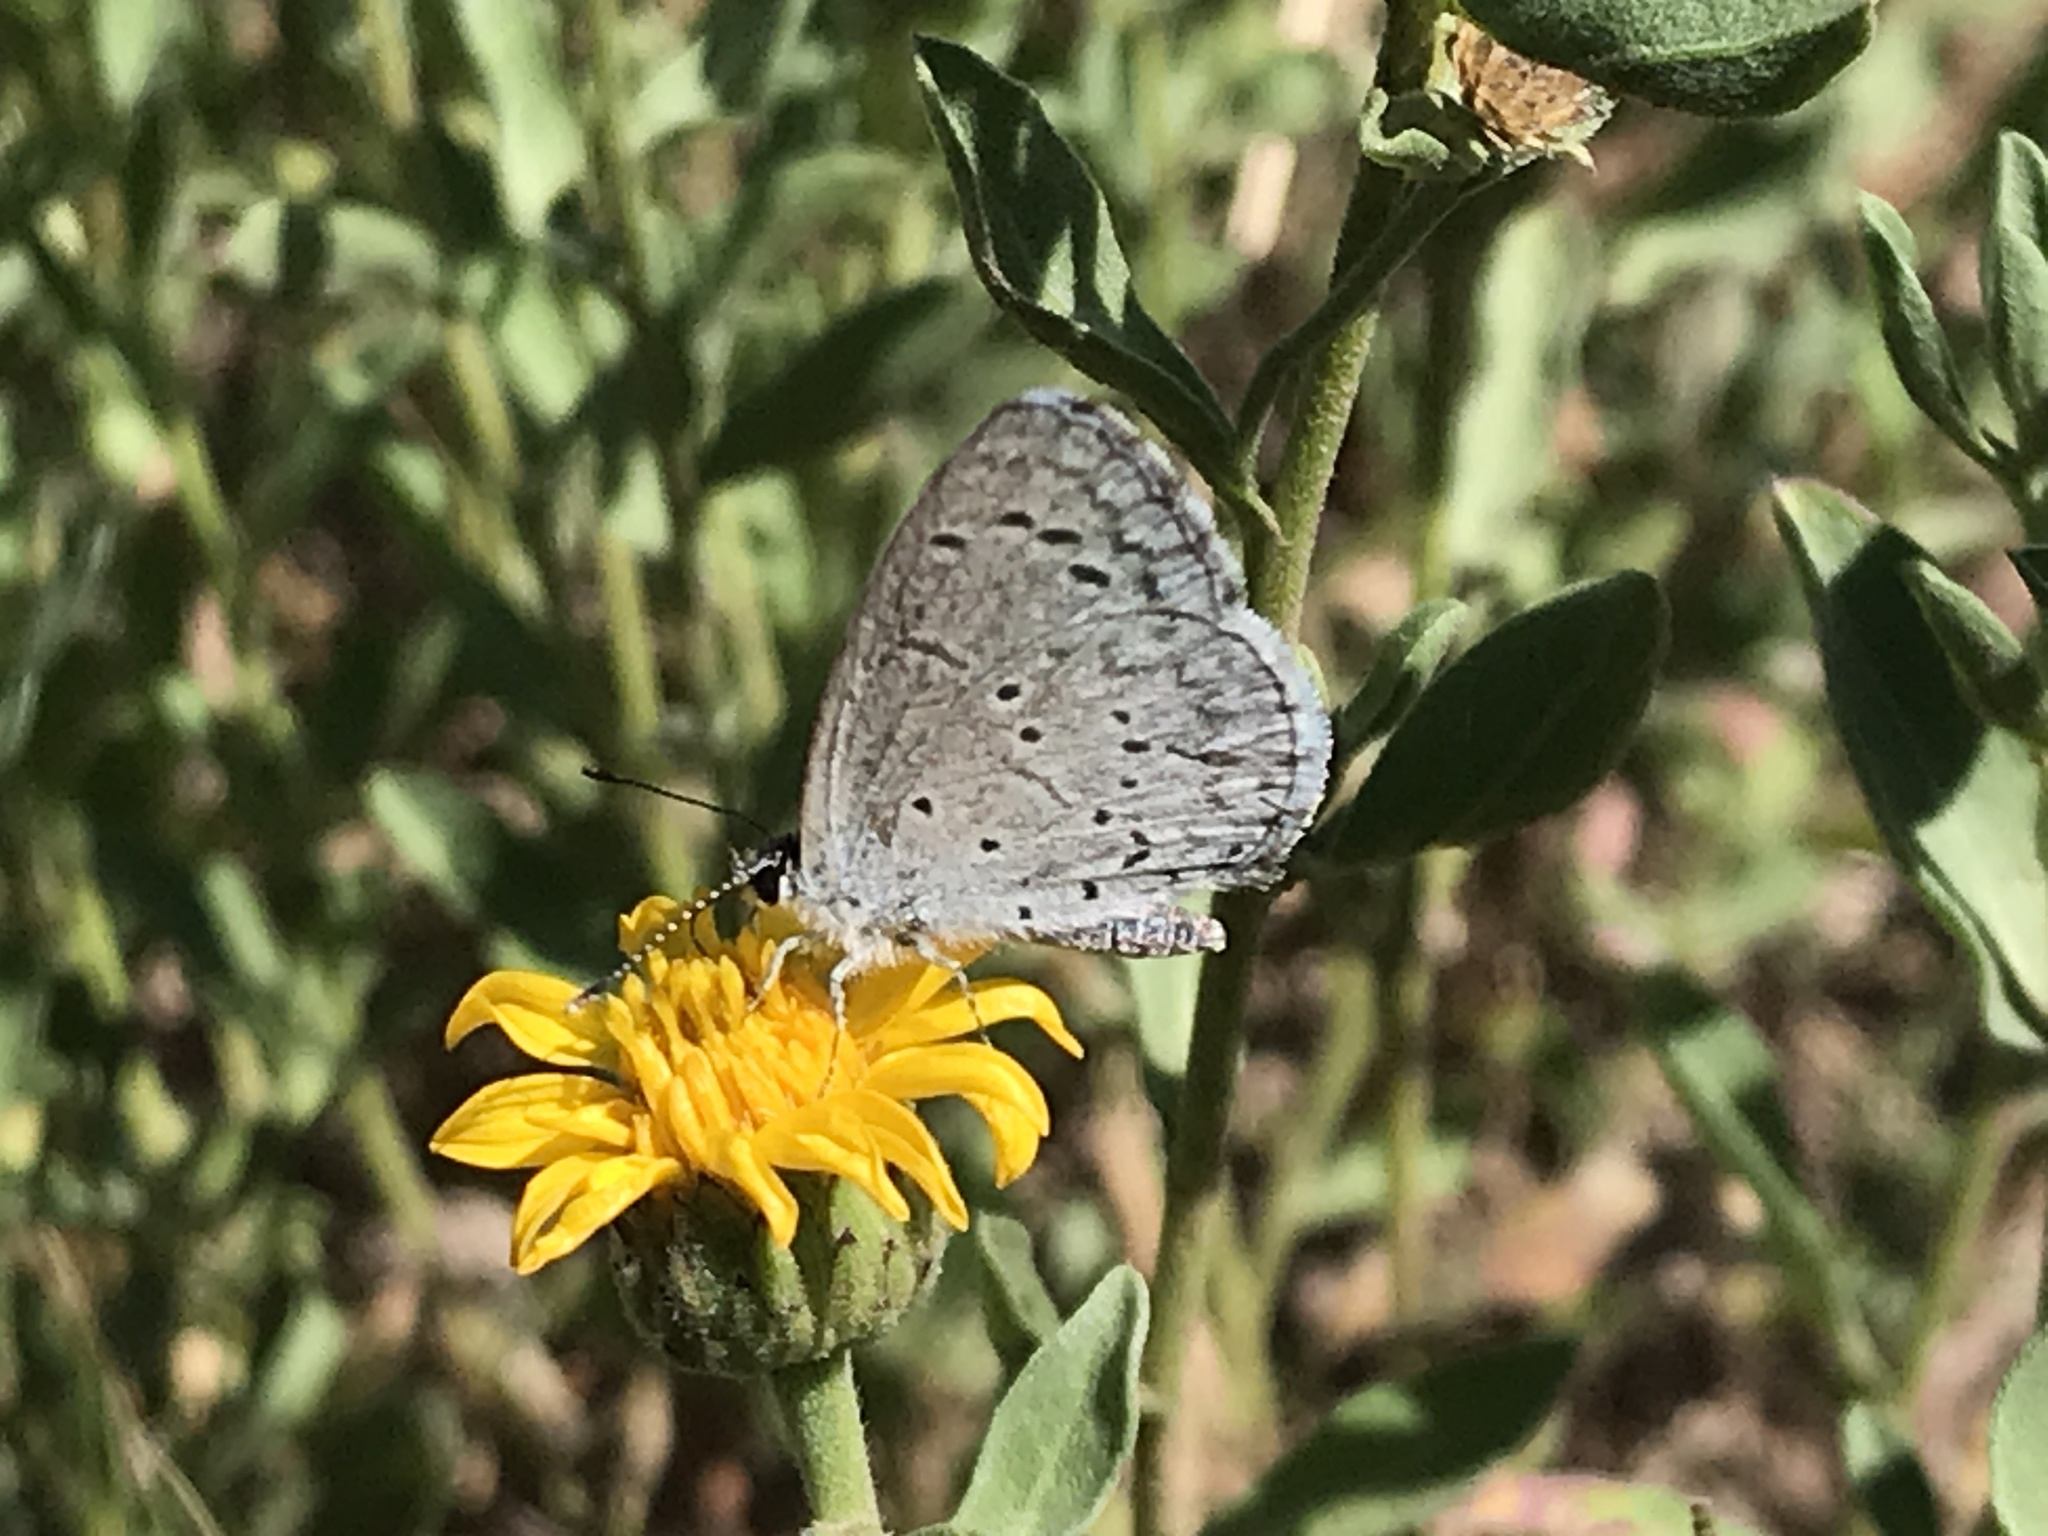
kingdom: Animalia
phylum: Arthropoda
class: Insecta
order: Lepidoptera
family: Lycaenidae
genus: Celastrina
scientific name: Celastrina argiolus
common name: Holly blue
